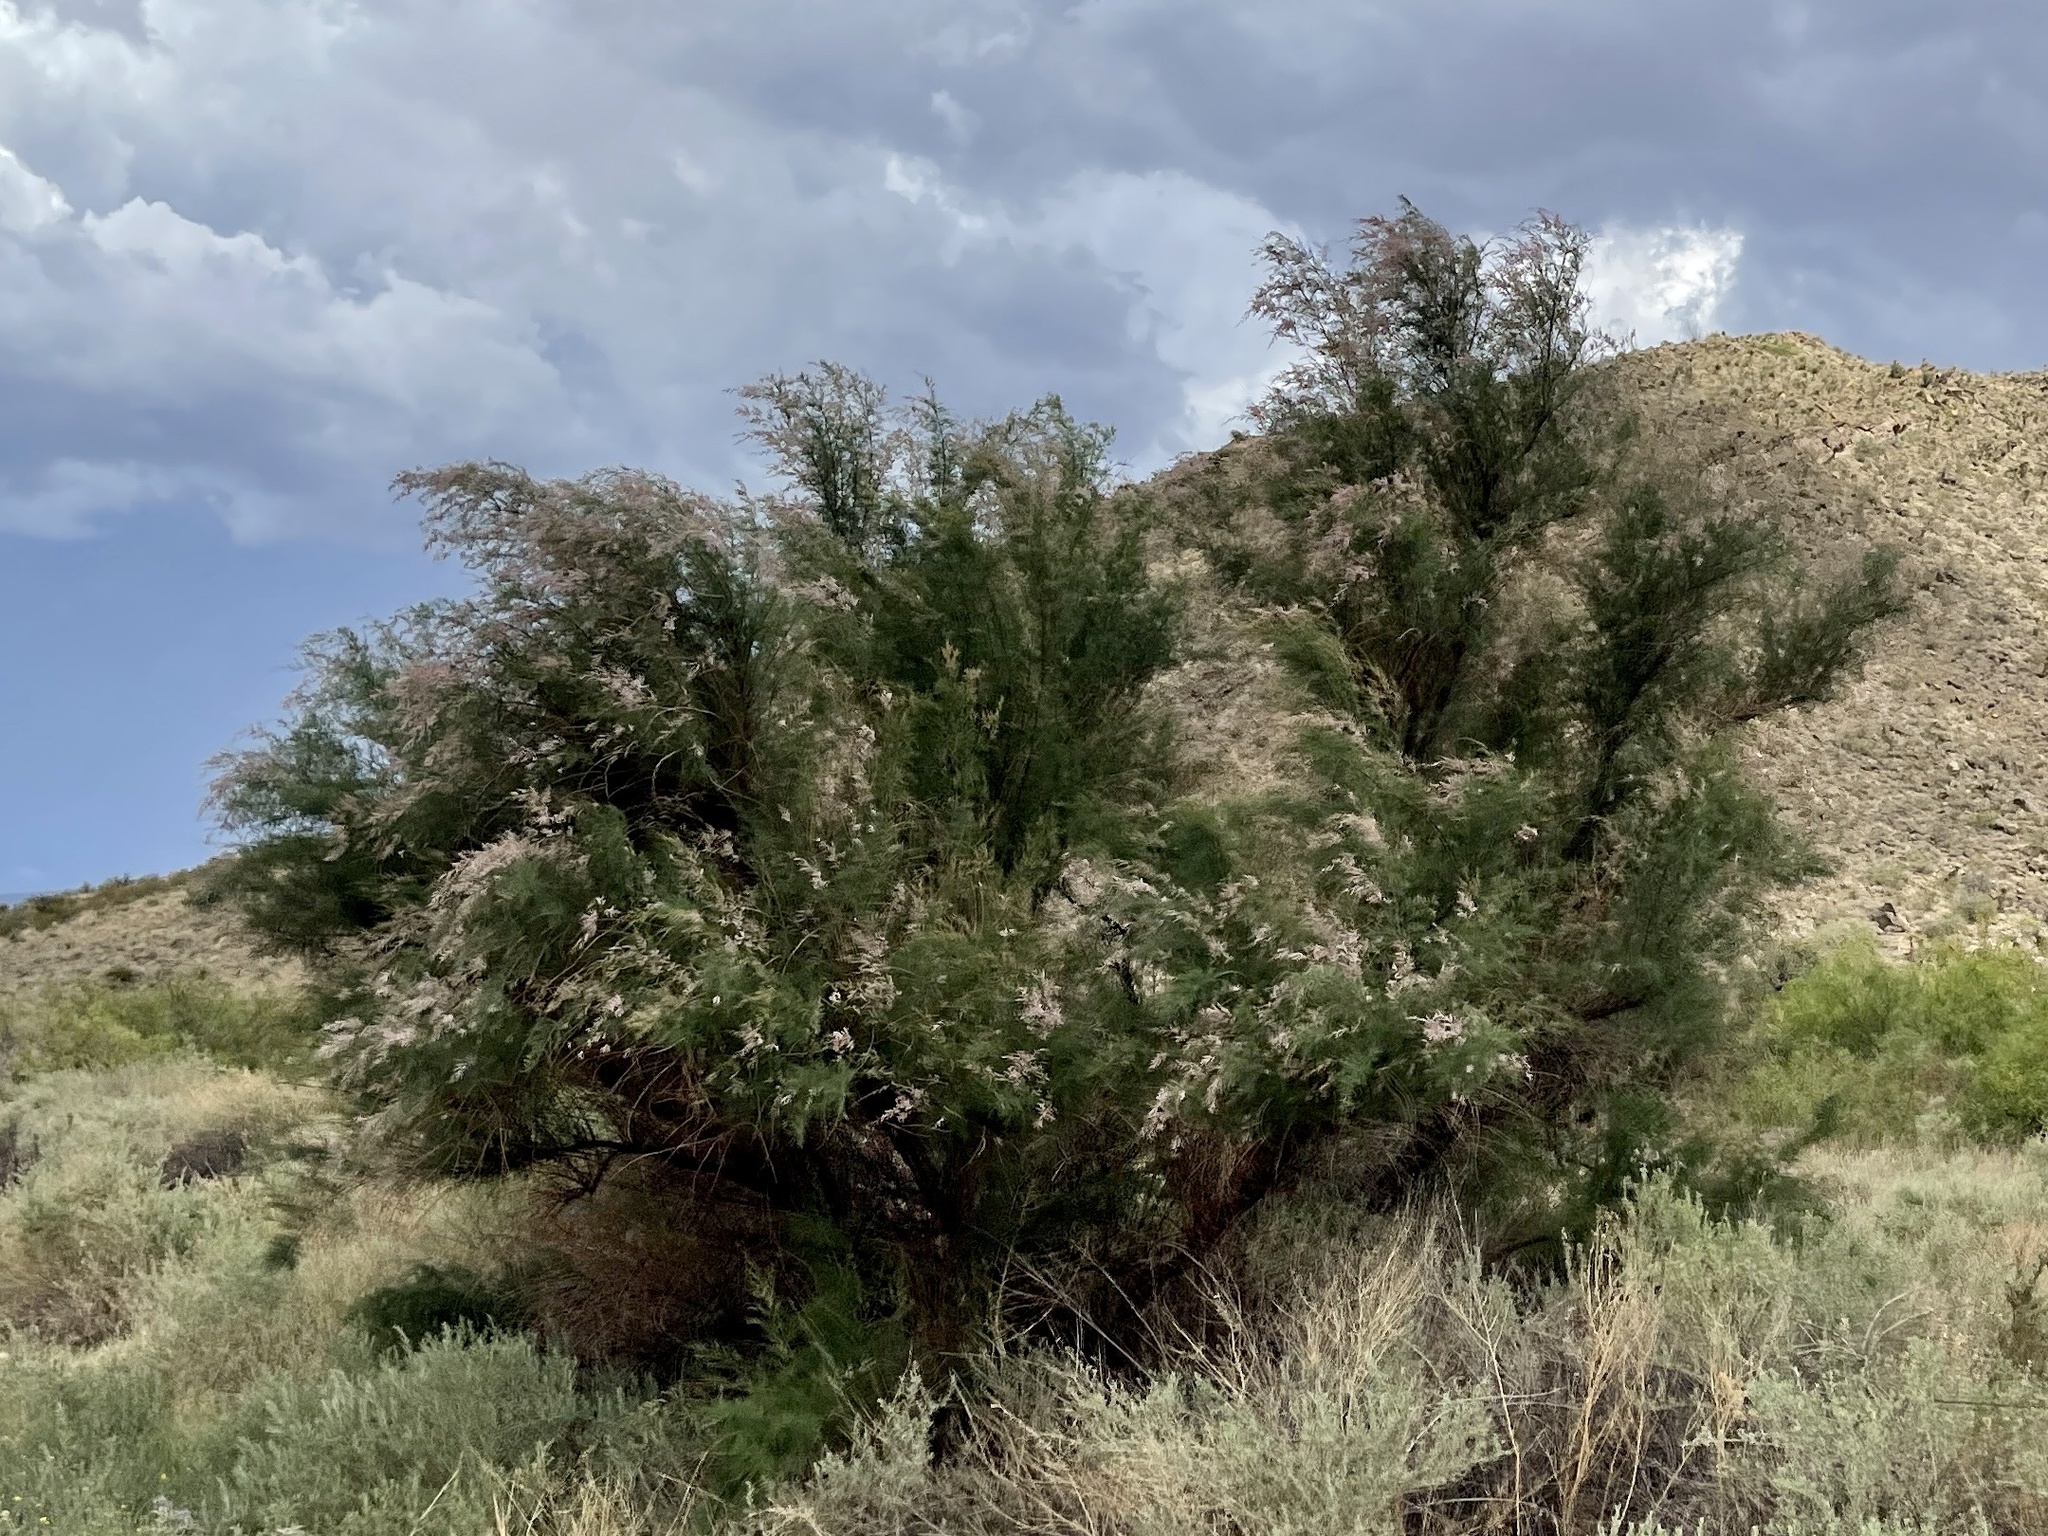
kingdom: Plantae
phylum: Tracheophyta
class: Magnoliopsida
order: Caryophyllales
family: Tamaricaceae
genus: Tamarix
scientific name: Tamarix
